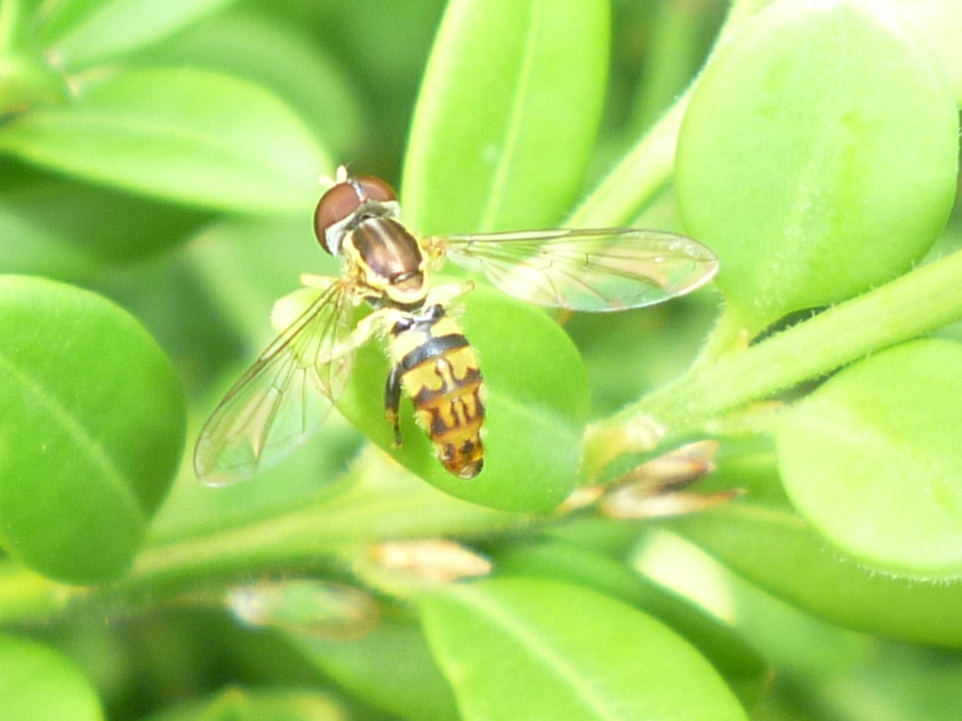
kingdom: Animalia
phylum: Arthropoda
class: Insecta
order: Diptera
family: Syrphidae
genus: Toxomerus
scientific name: Toxomerus geminatus
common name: Eastern calligrapher
